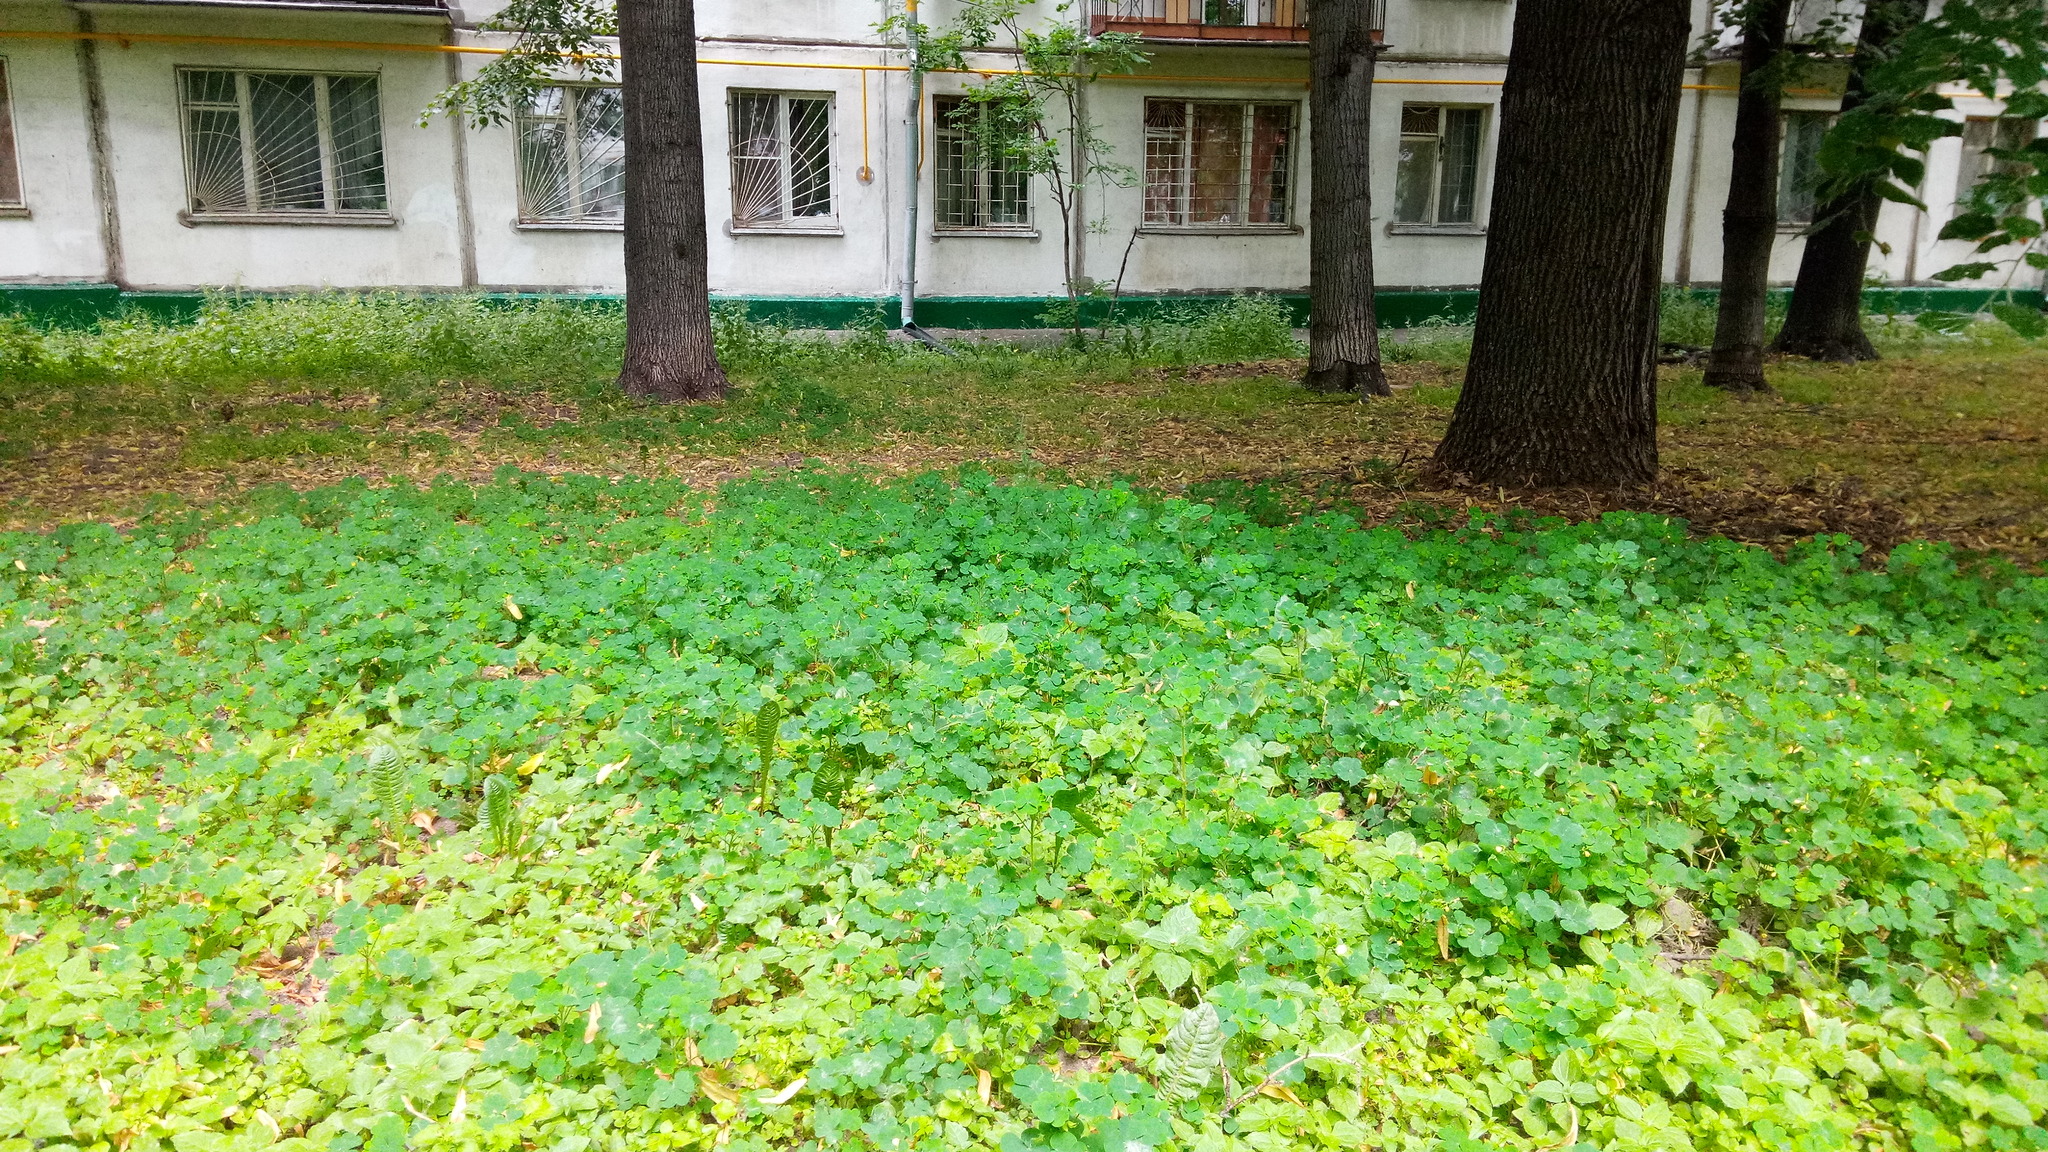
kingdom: Plantae
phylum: Tracheophyta
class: Magnoliopsida
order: Oxalidales
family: Oxalidaceae
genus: Oxalis
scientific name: Oxalis stricta
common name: Upright yellow-sorrel
